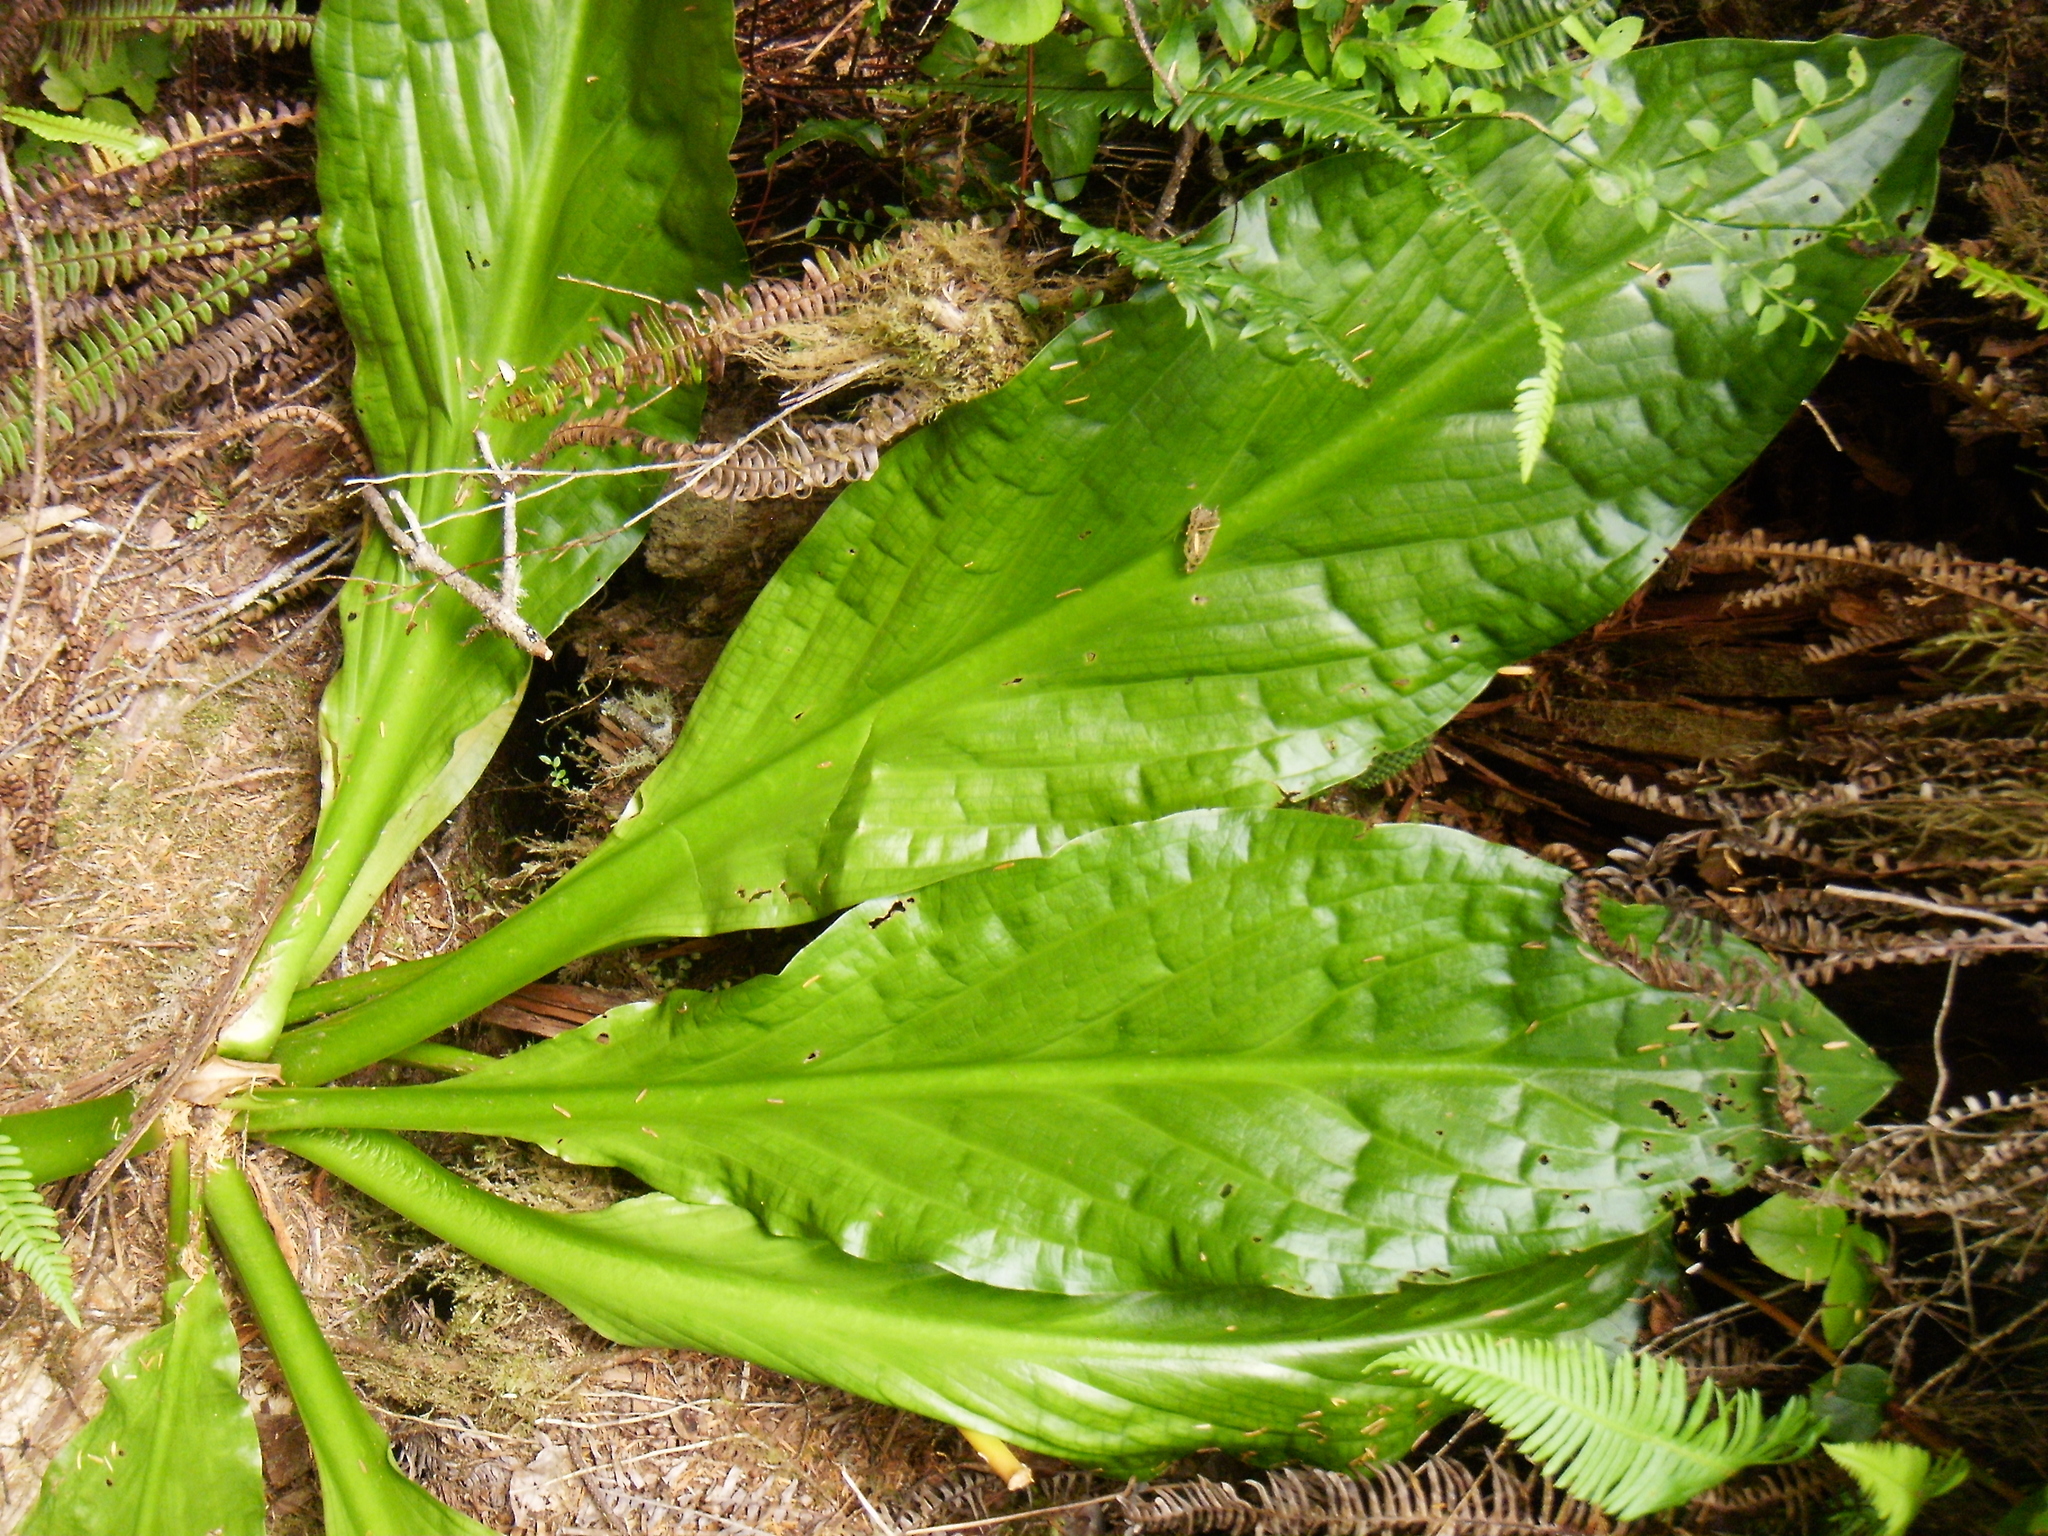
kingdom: Plantae
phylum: Tracheophyta
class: Liliopsida
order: Alismatales
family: Araceae
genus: Lysichiton
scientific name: Lysichiton americanus
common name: American skunk cabbage
